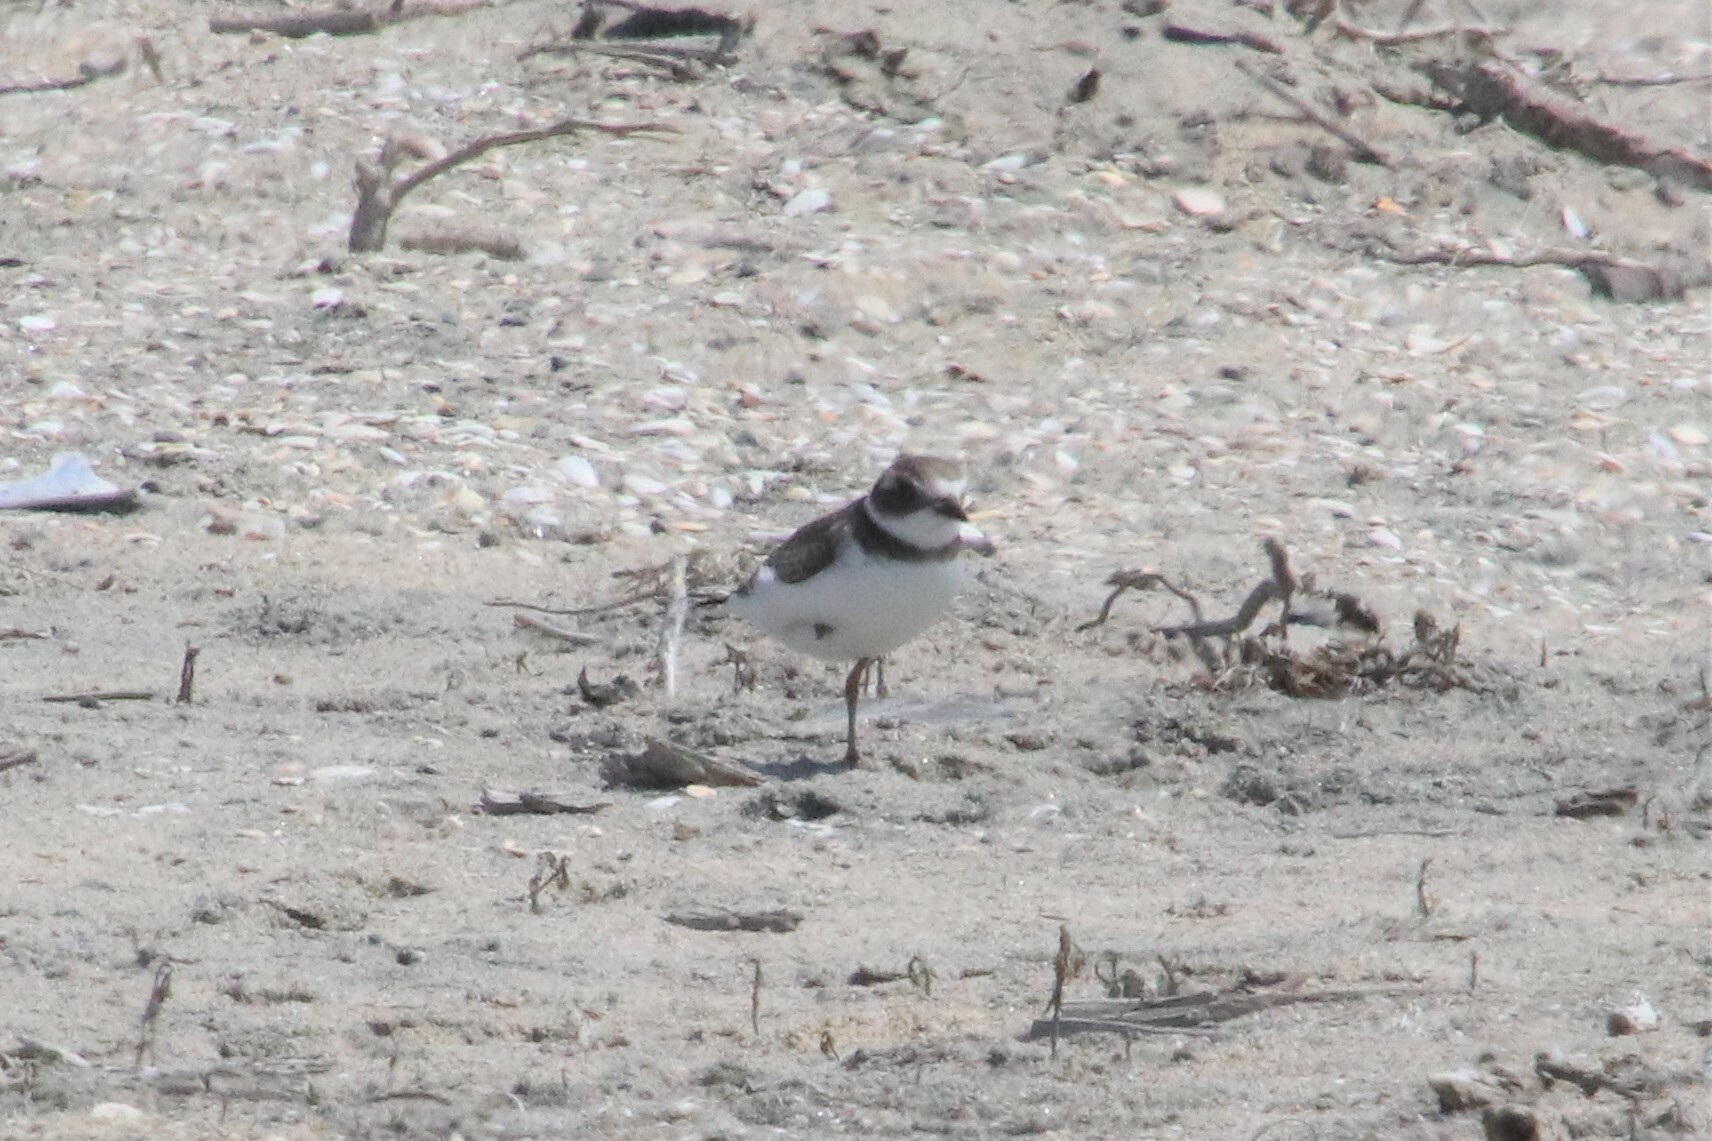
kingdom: Animalia
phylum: Chordata
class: Aves
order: Charadriiformes
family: Charadriidae
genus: Charadrius
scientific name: Charadrius semipalmatus
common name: Semipalmated plover
